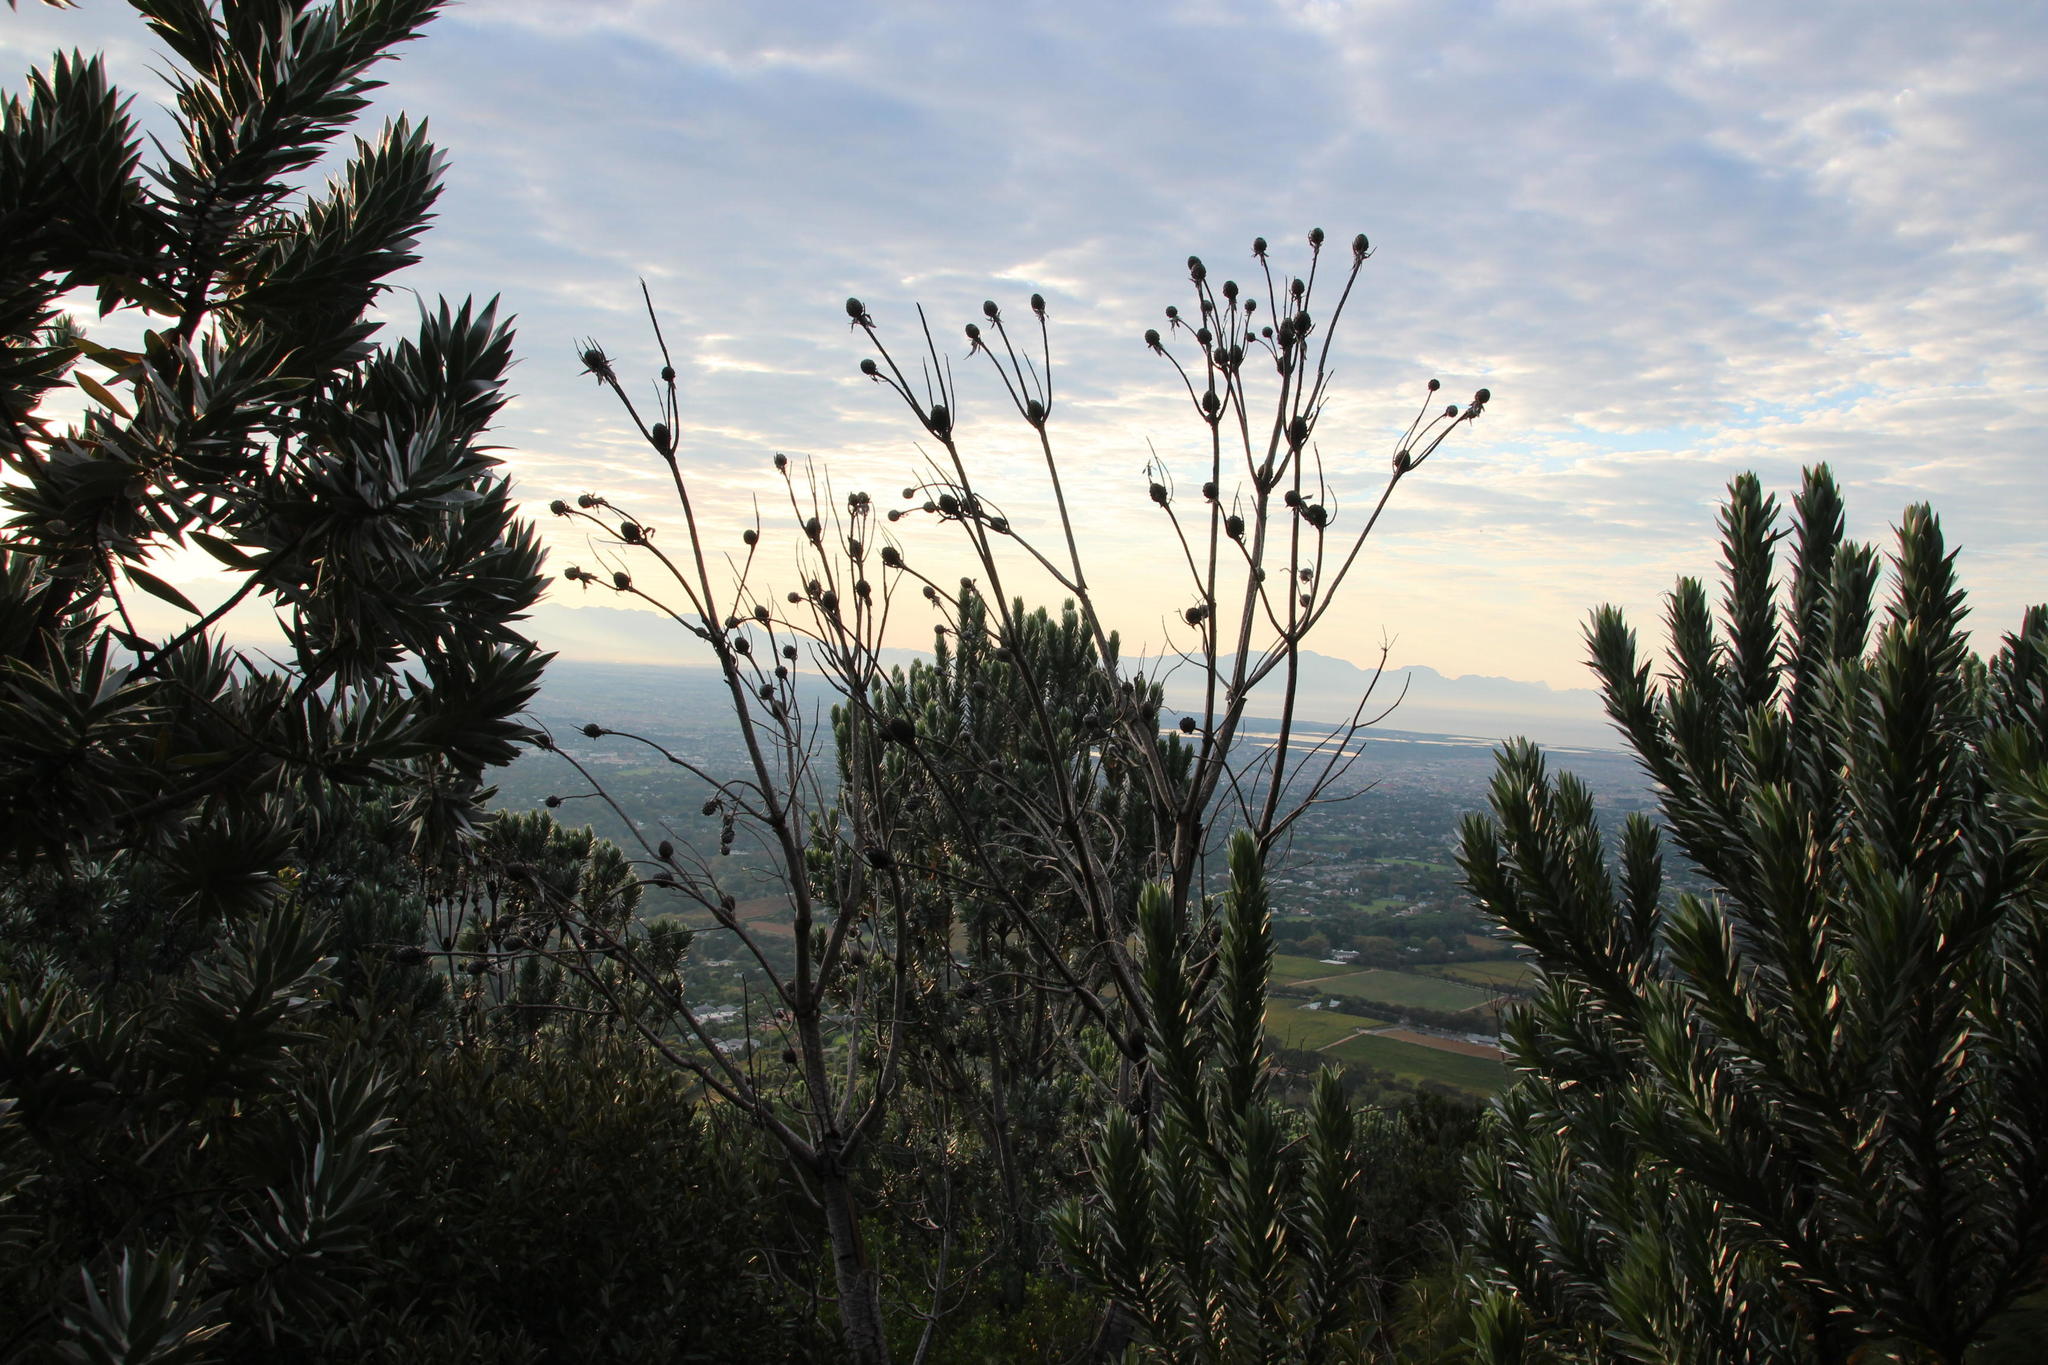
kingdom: Plantae
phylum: Tracheophyta
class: Magnoliopsida
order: Proteales
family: Proteaceae
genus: Leucadendron
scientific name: Leucadendron argenteum
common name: Cape silver tree
